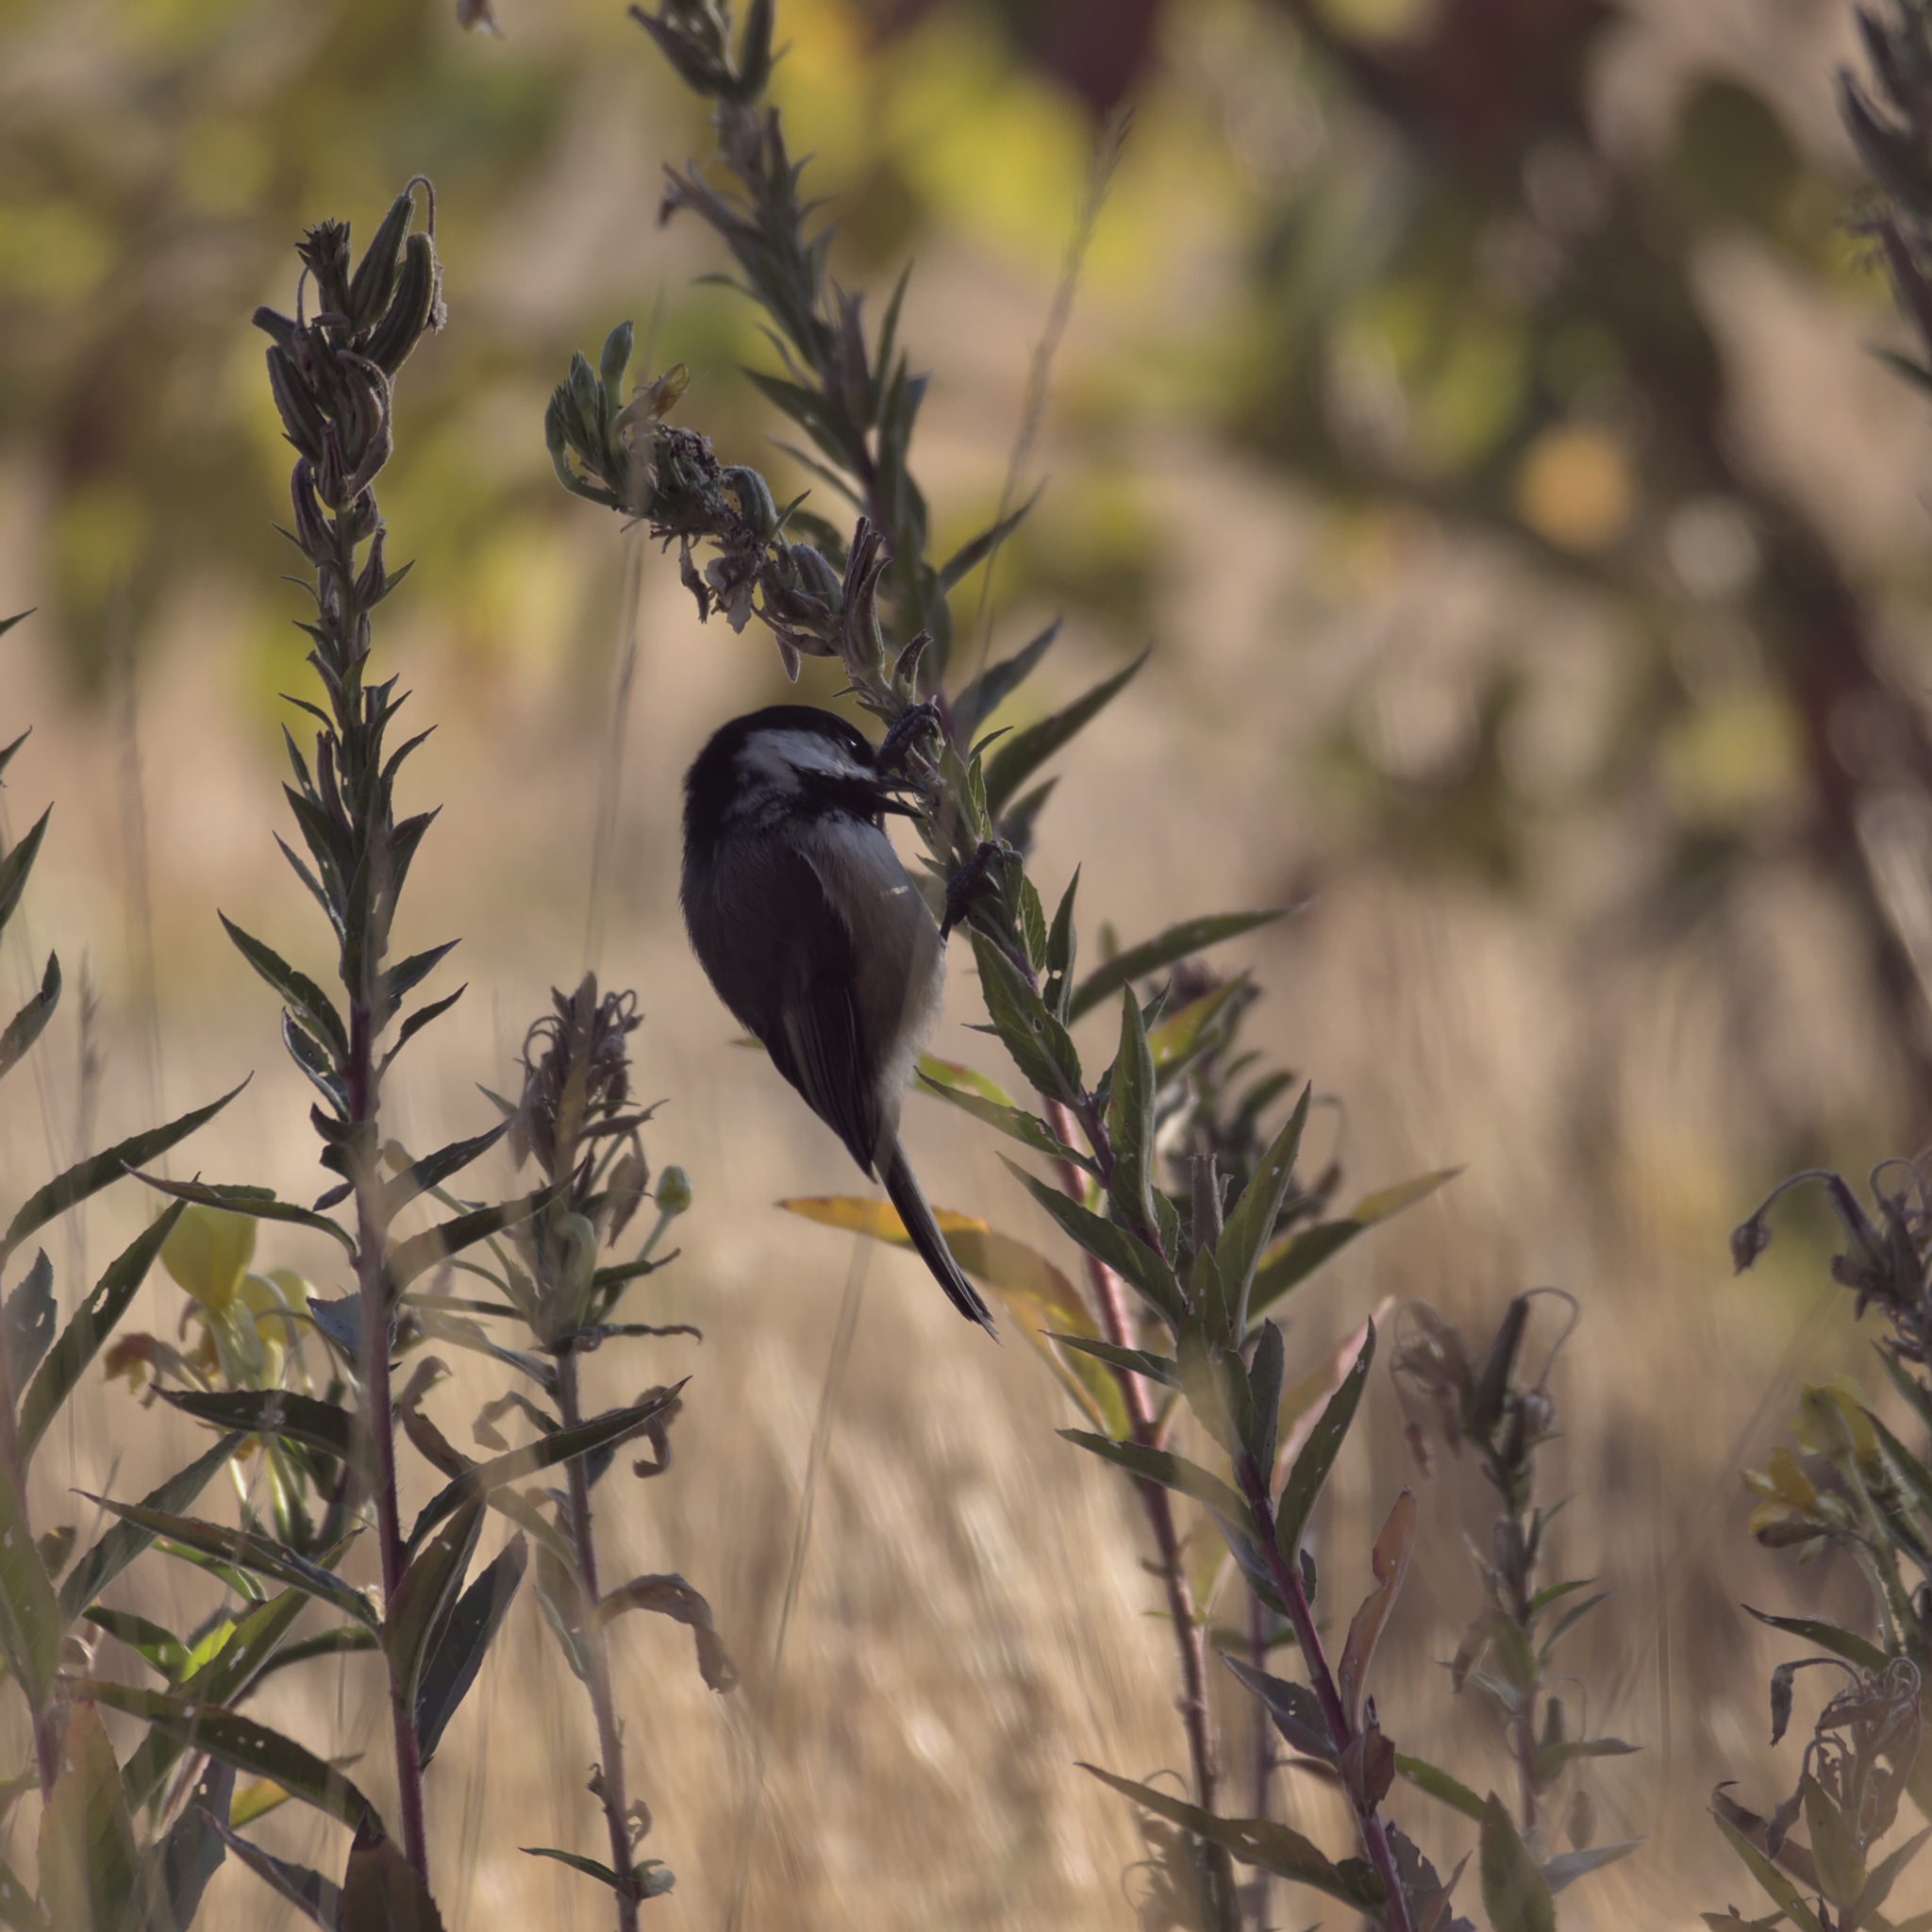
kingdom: Animalia
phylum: Chordata
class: Aves
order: Passeriformes
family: Paridae
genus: Poecile
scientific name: Poecile atricapillus
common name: Black-capped chickadee
